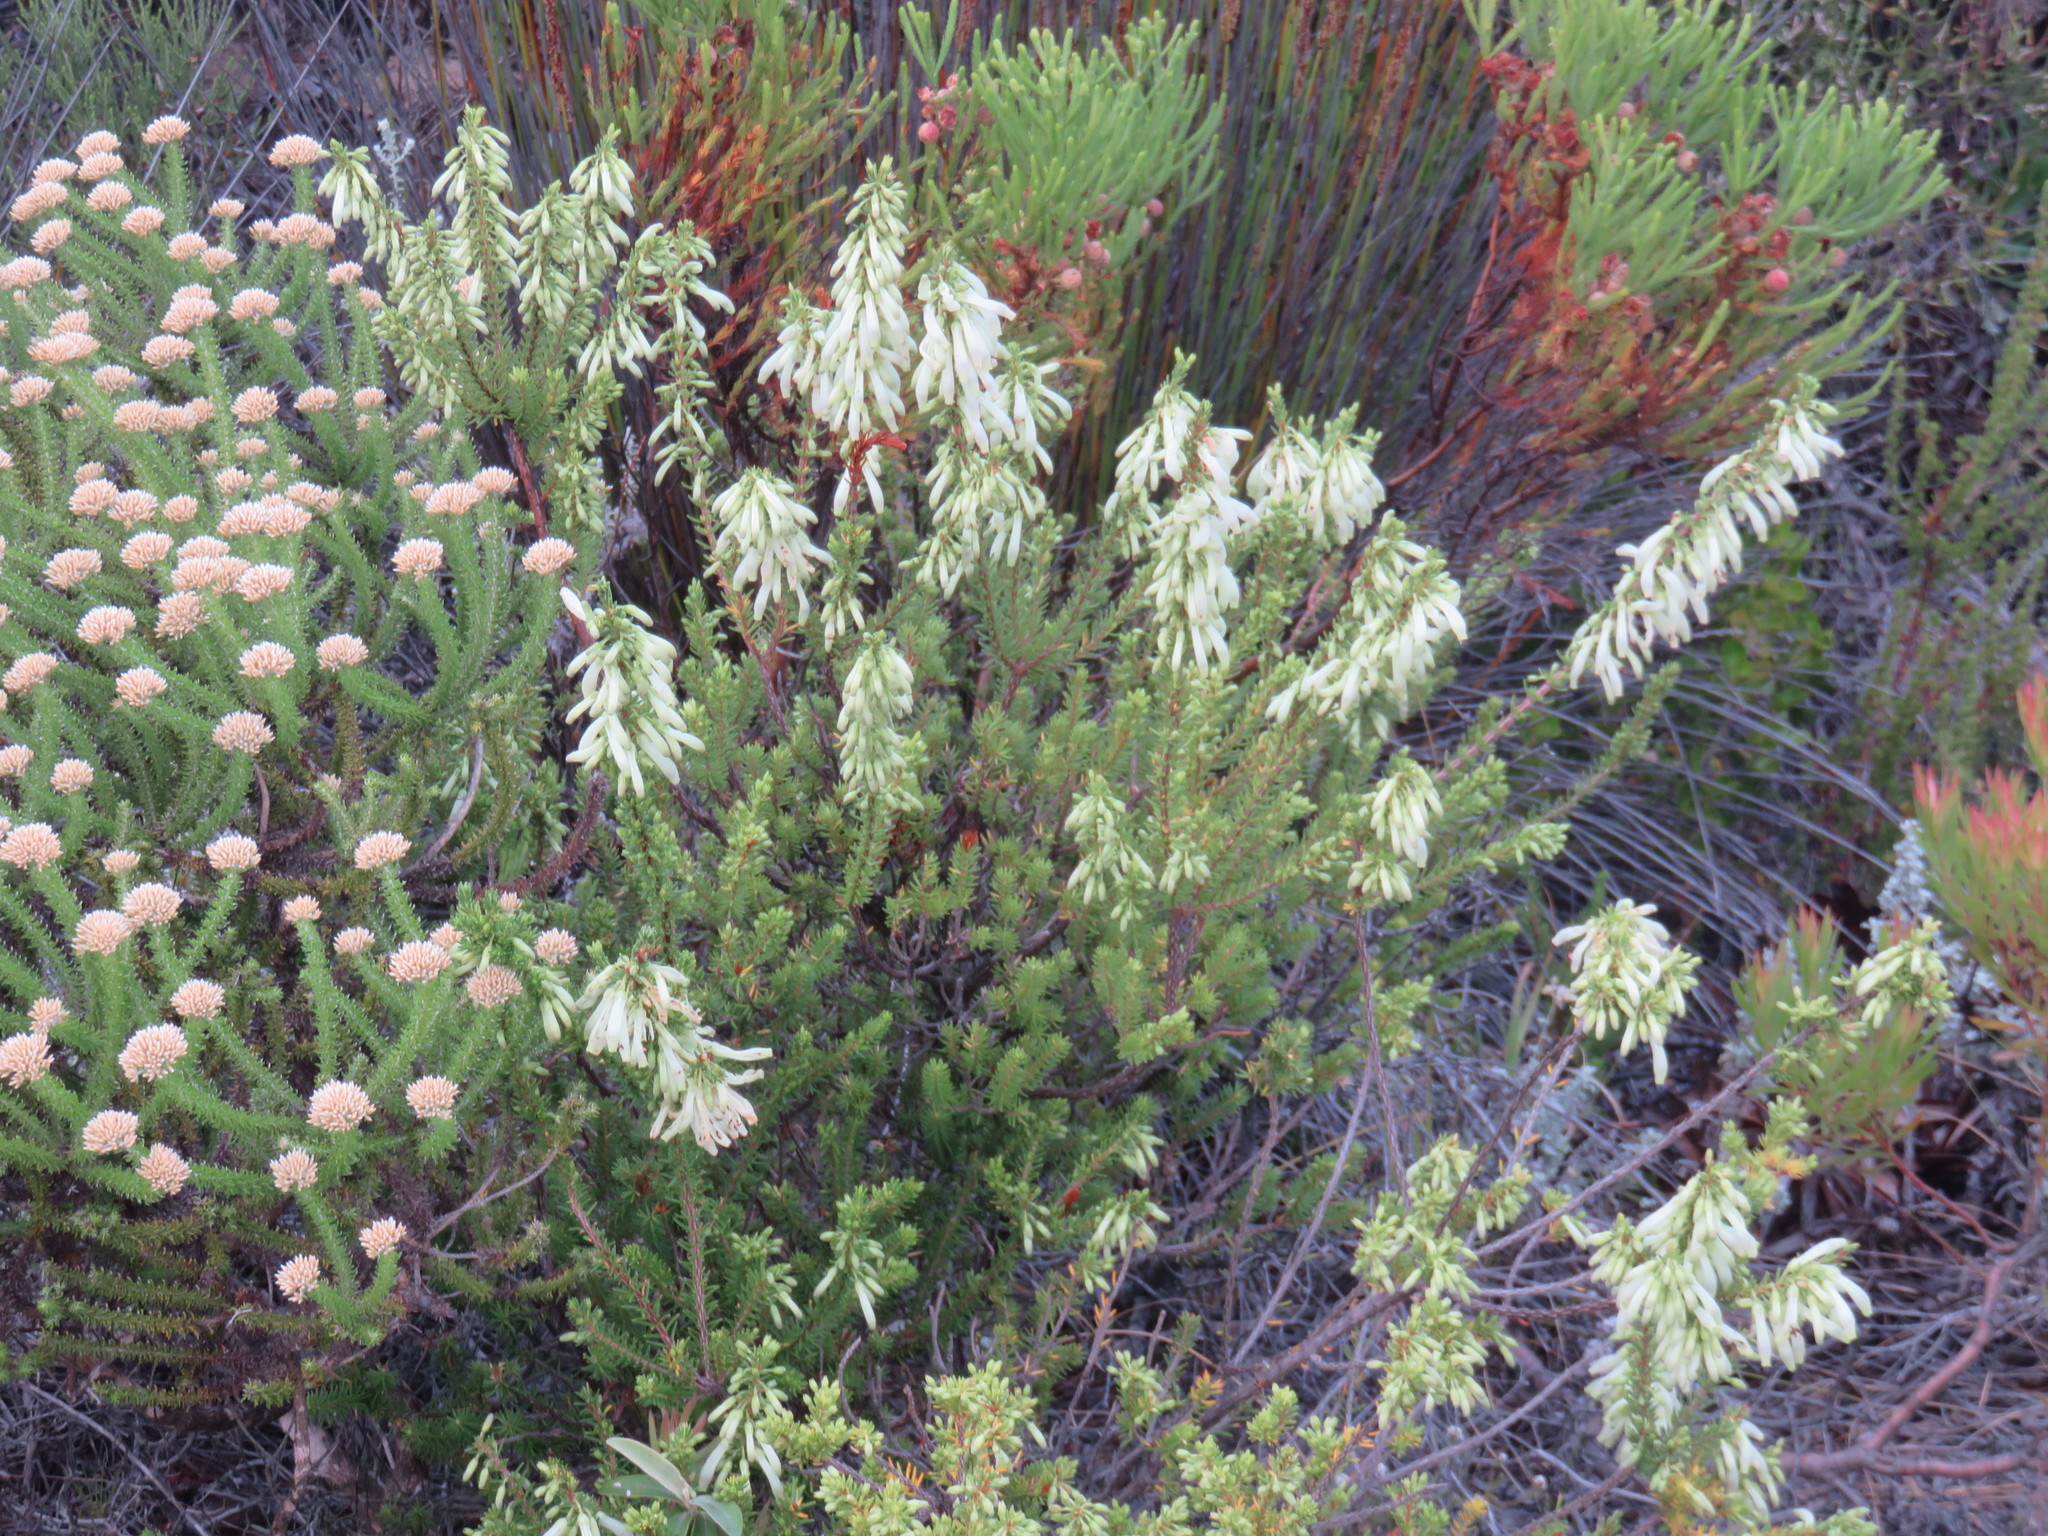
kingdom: Plantae
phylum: Tracheophyta
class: Magnoliopsida
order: Ericales
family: Ericaceae
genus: Erica
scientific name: Erica mammosa
